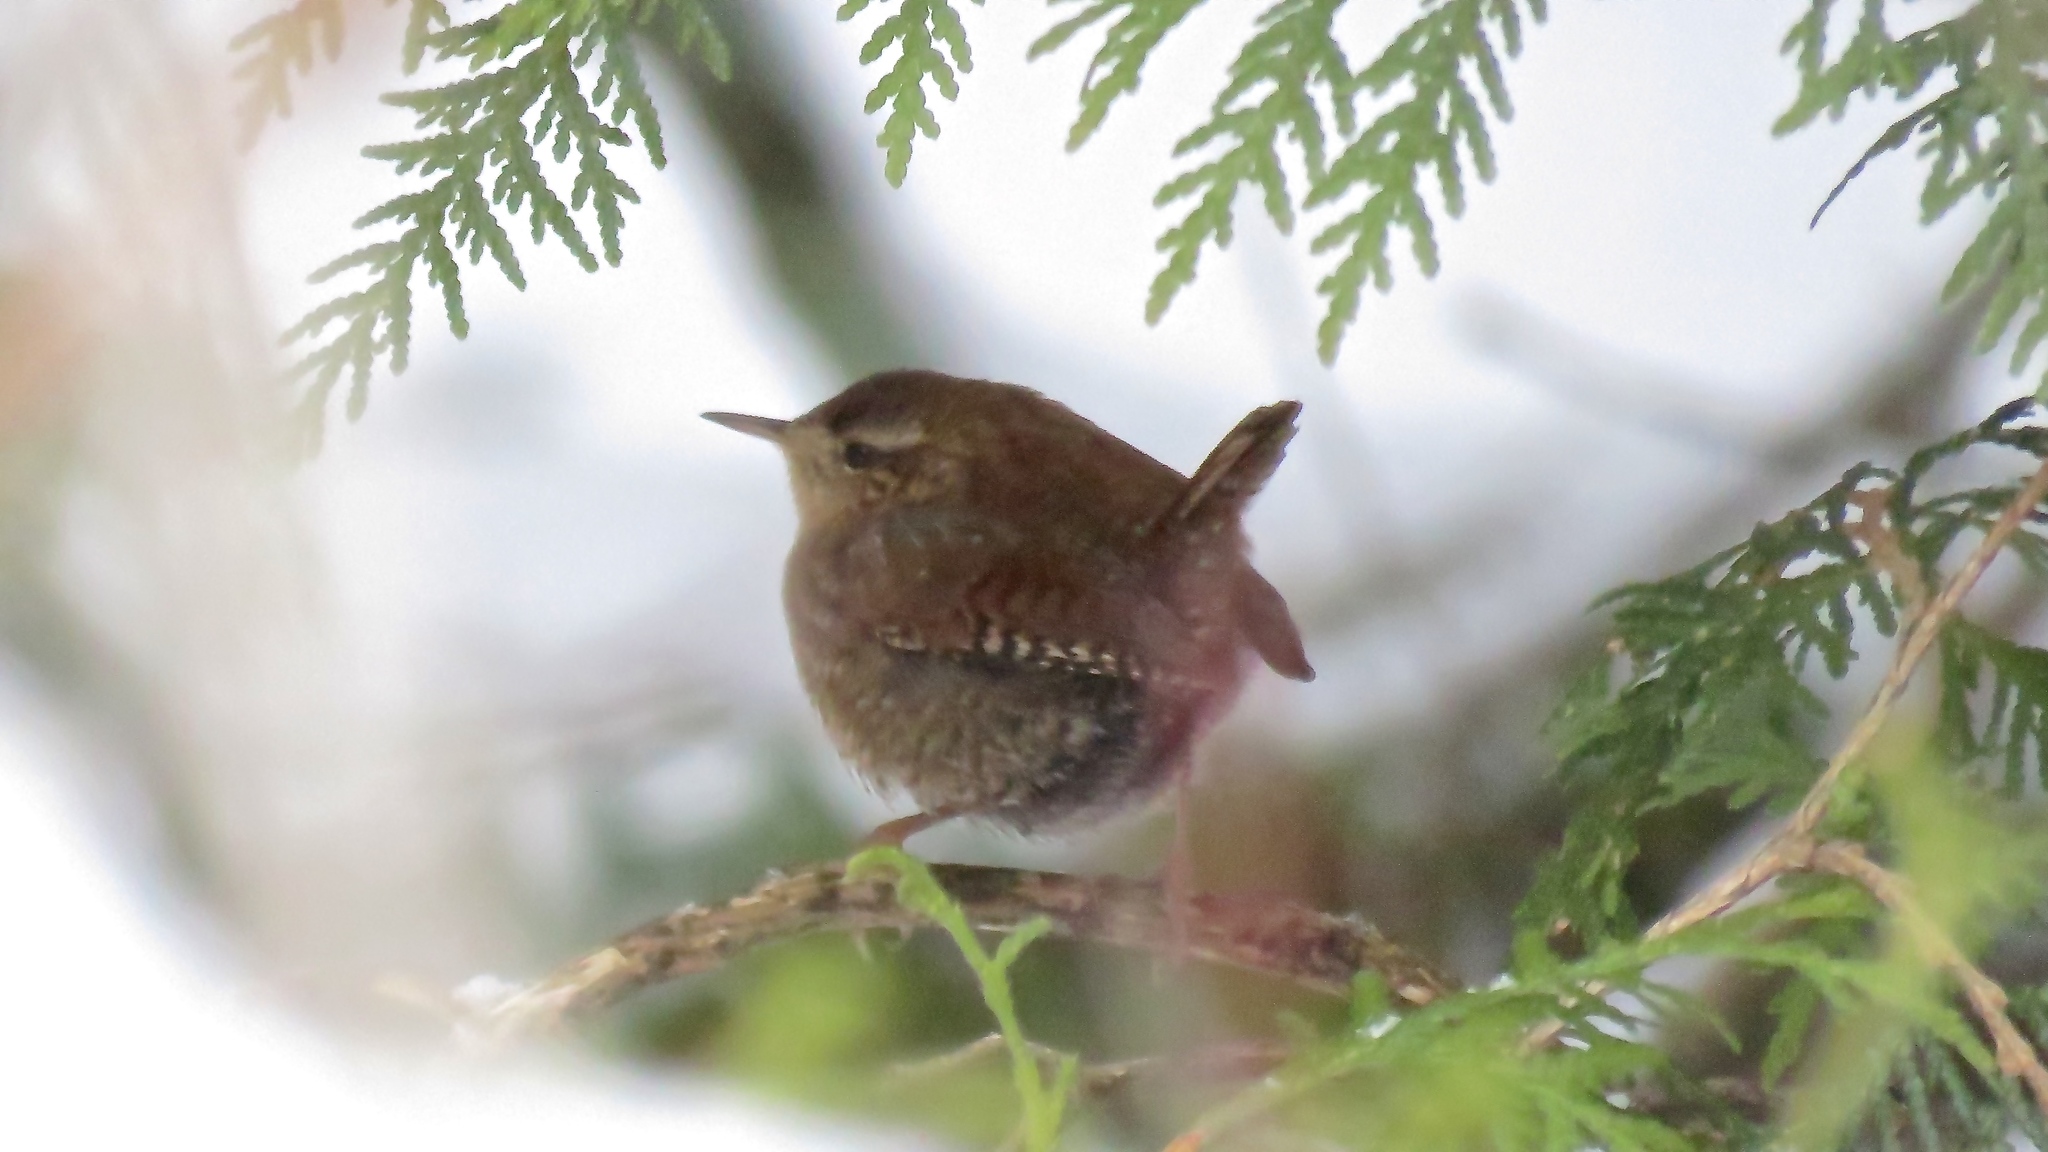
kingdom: Animalia
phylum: Chordata
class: Aves
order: Passeriformes
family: Troglodytidae
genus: Troglodytes
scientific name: Troglodytes hiemalis
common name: Winter wren
